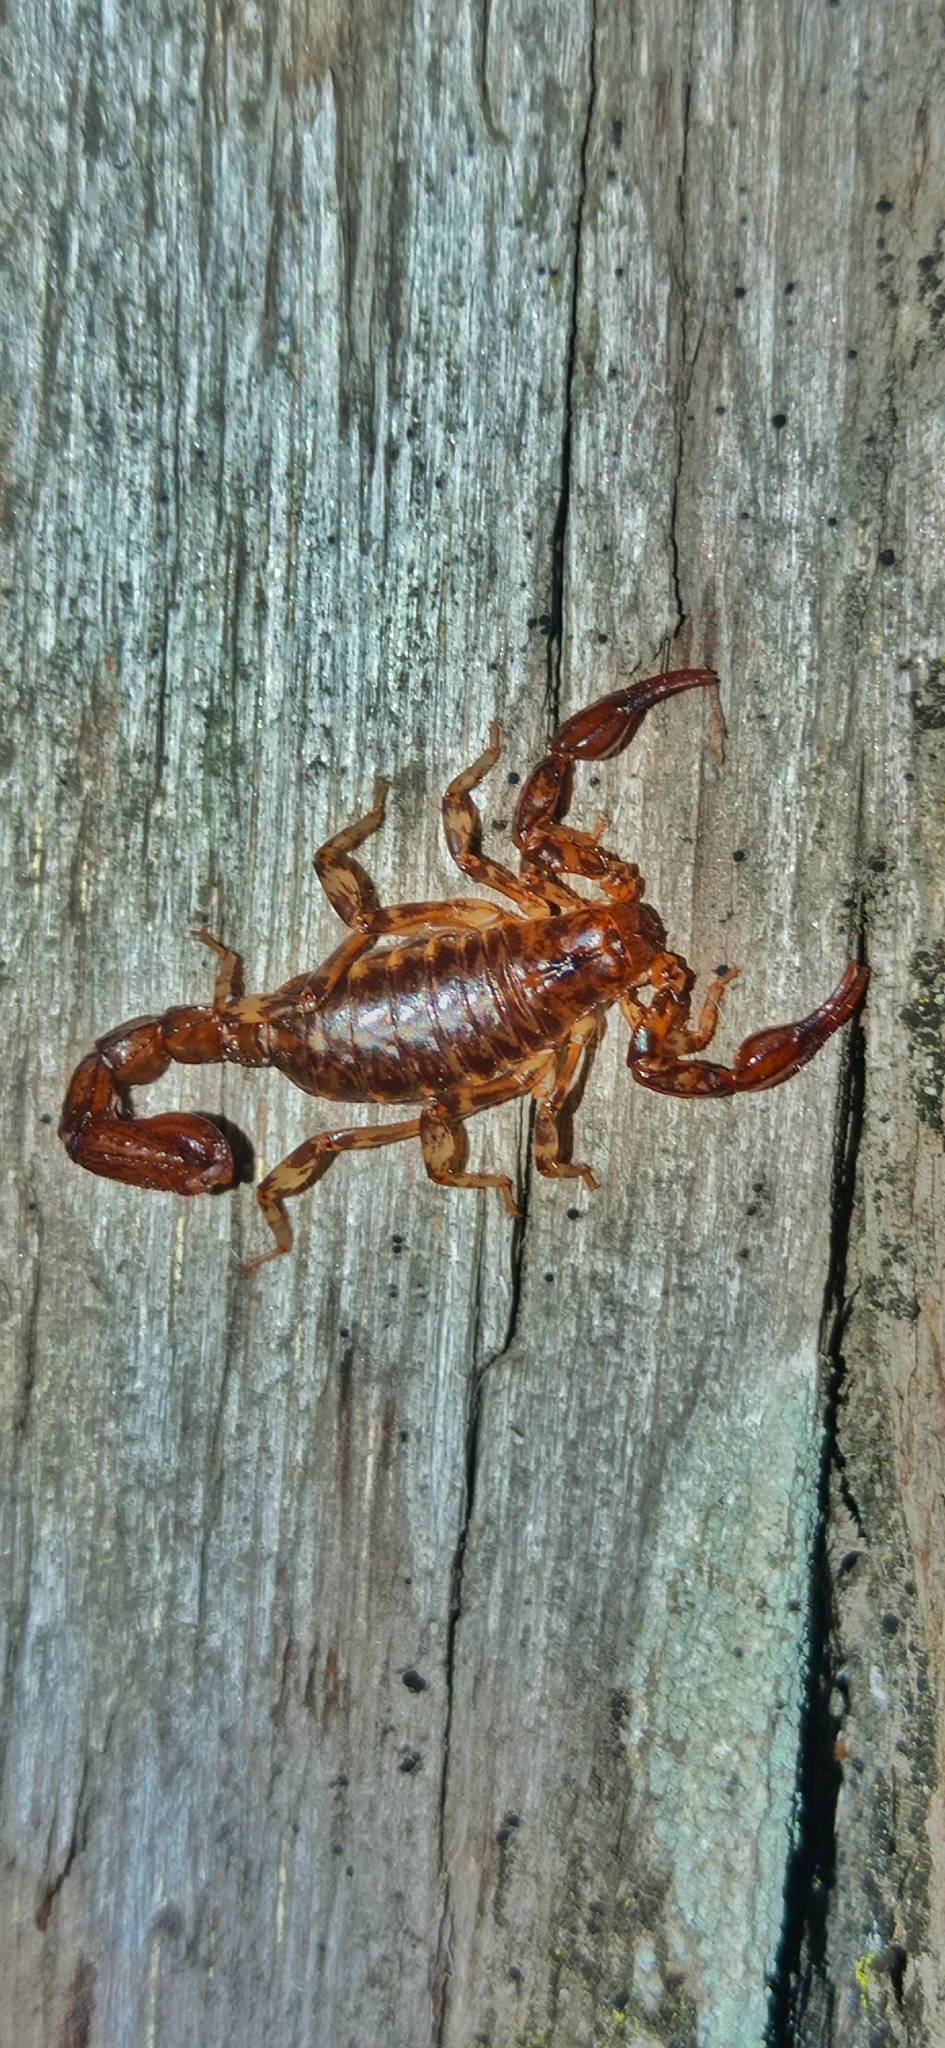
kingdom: Animalia
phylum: Arthropoda
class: Arachnida
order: Scorpiones
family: Bothriuridae
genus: Urophonius
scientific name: Urophonius granulatus
